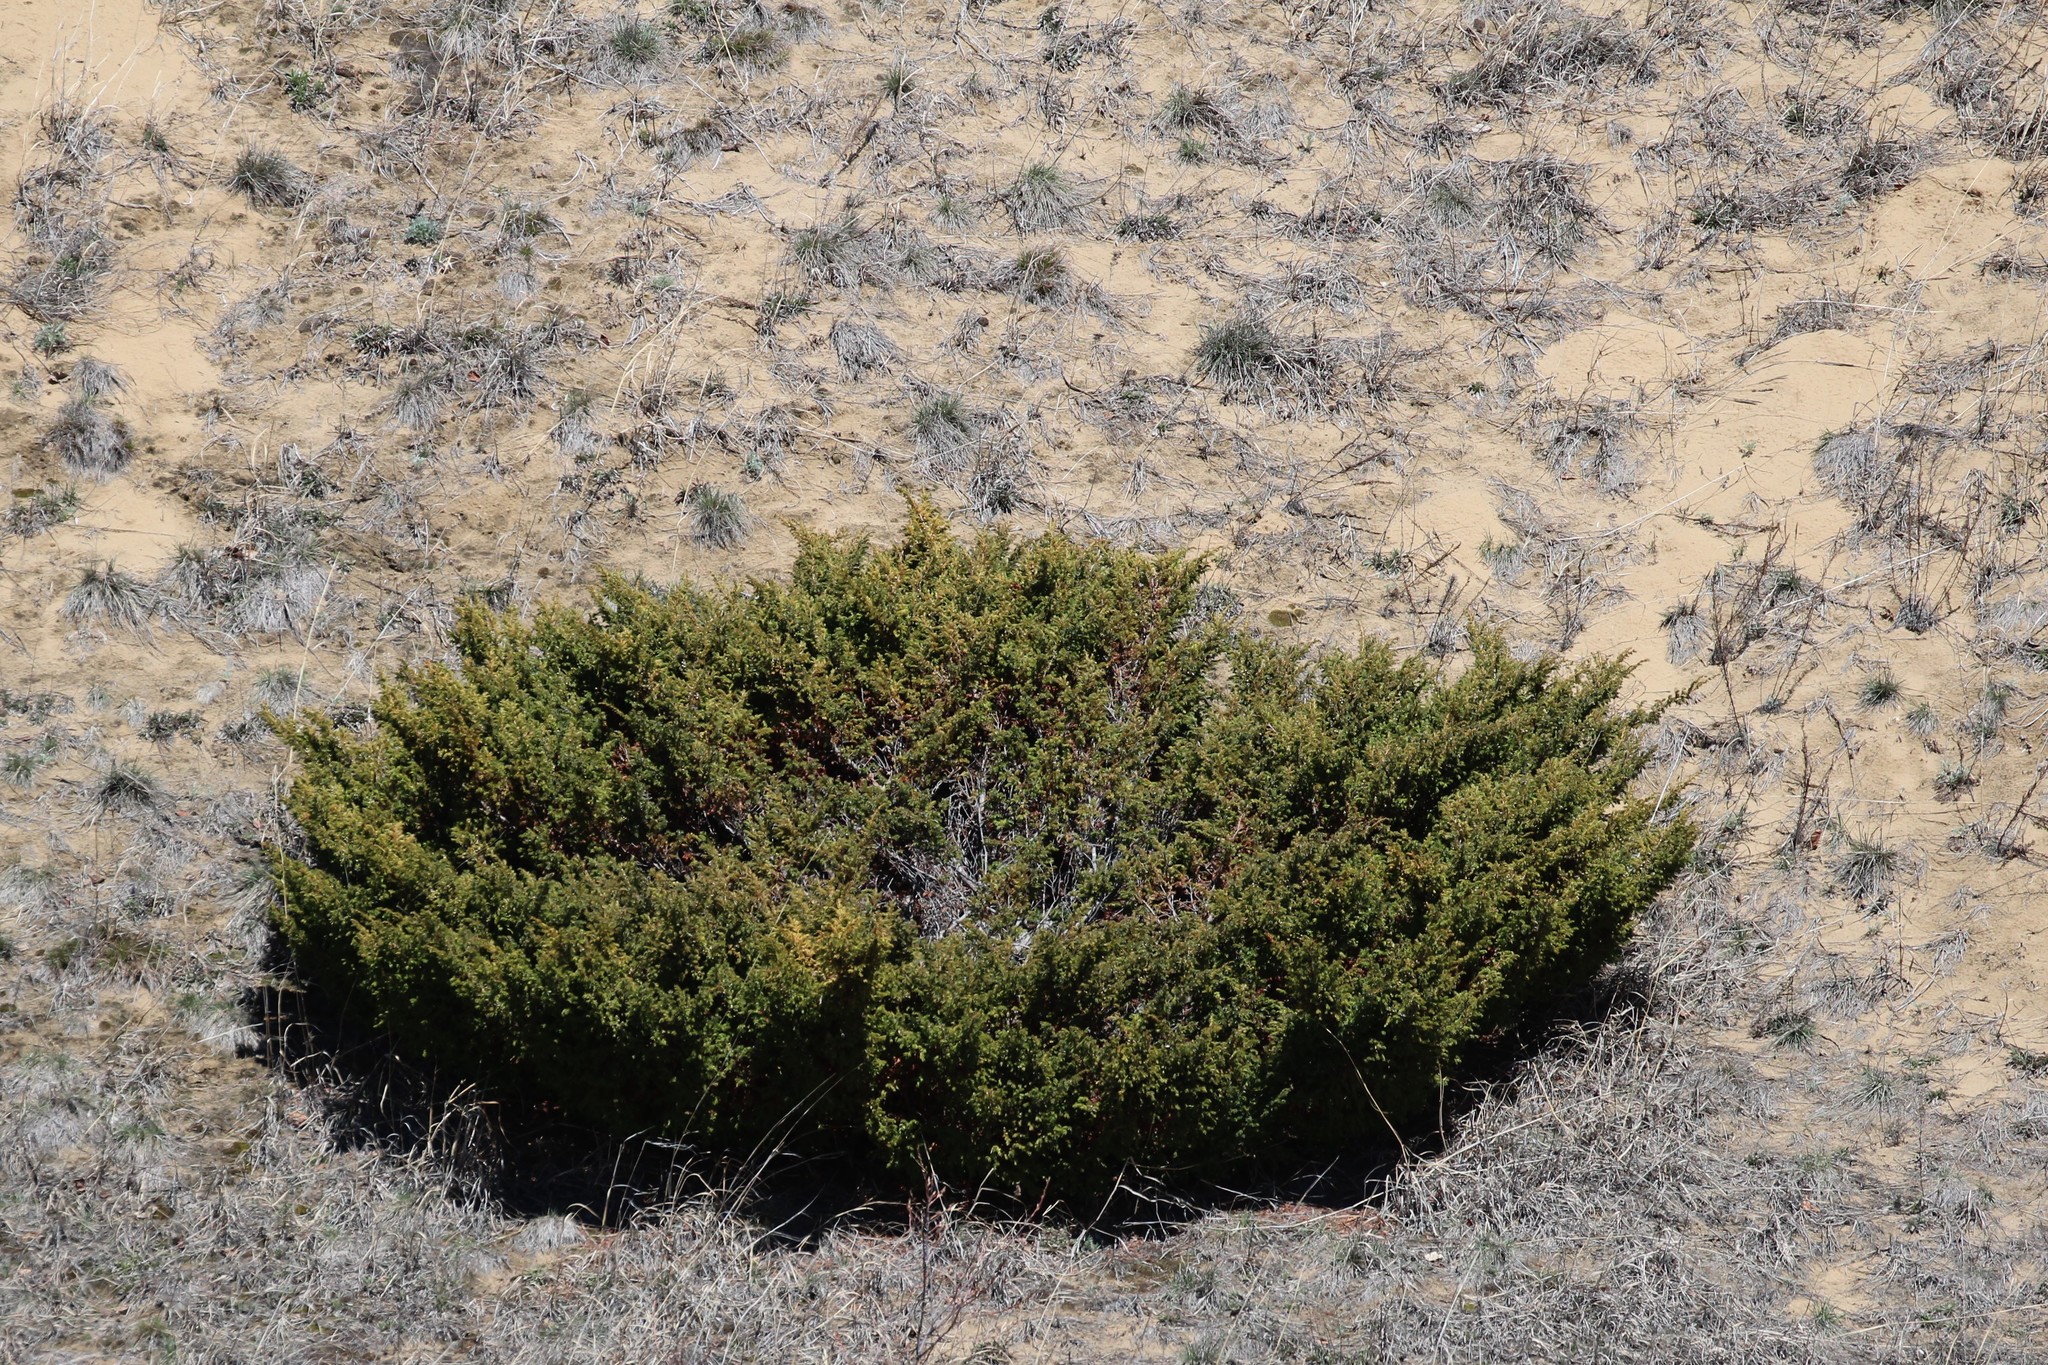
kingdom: Plantae
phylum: Tracheophyta
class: Pinopsida
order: Pinales
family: Cupressaceae
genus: Juniperus
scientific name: Juniperus communis
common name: Common juniper
